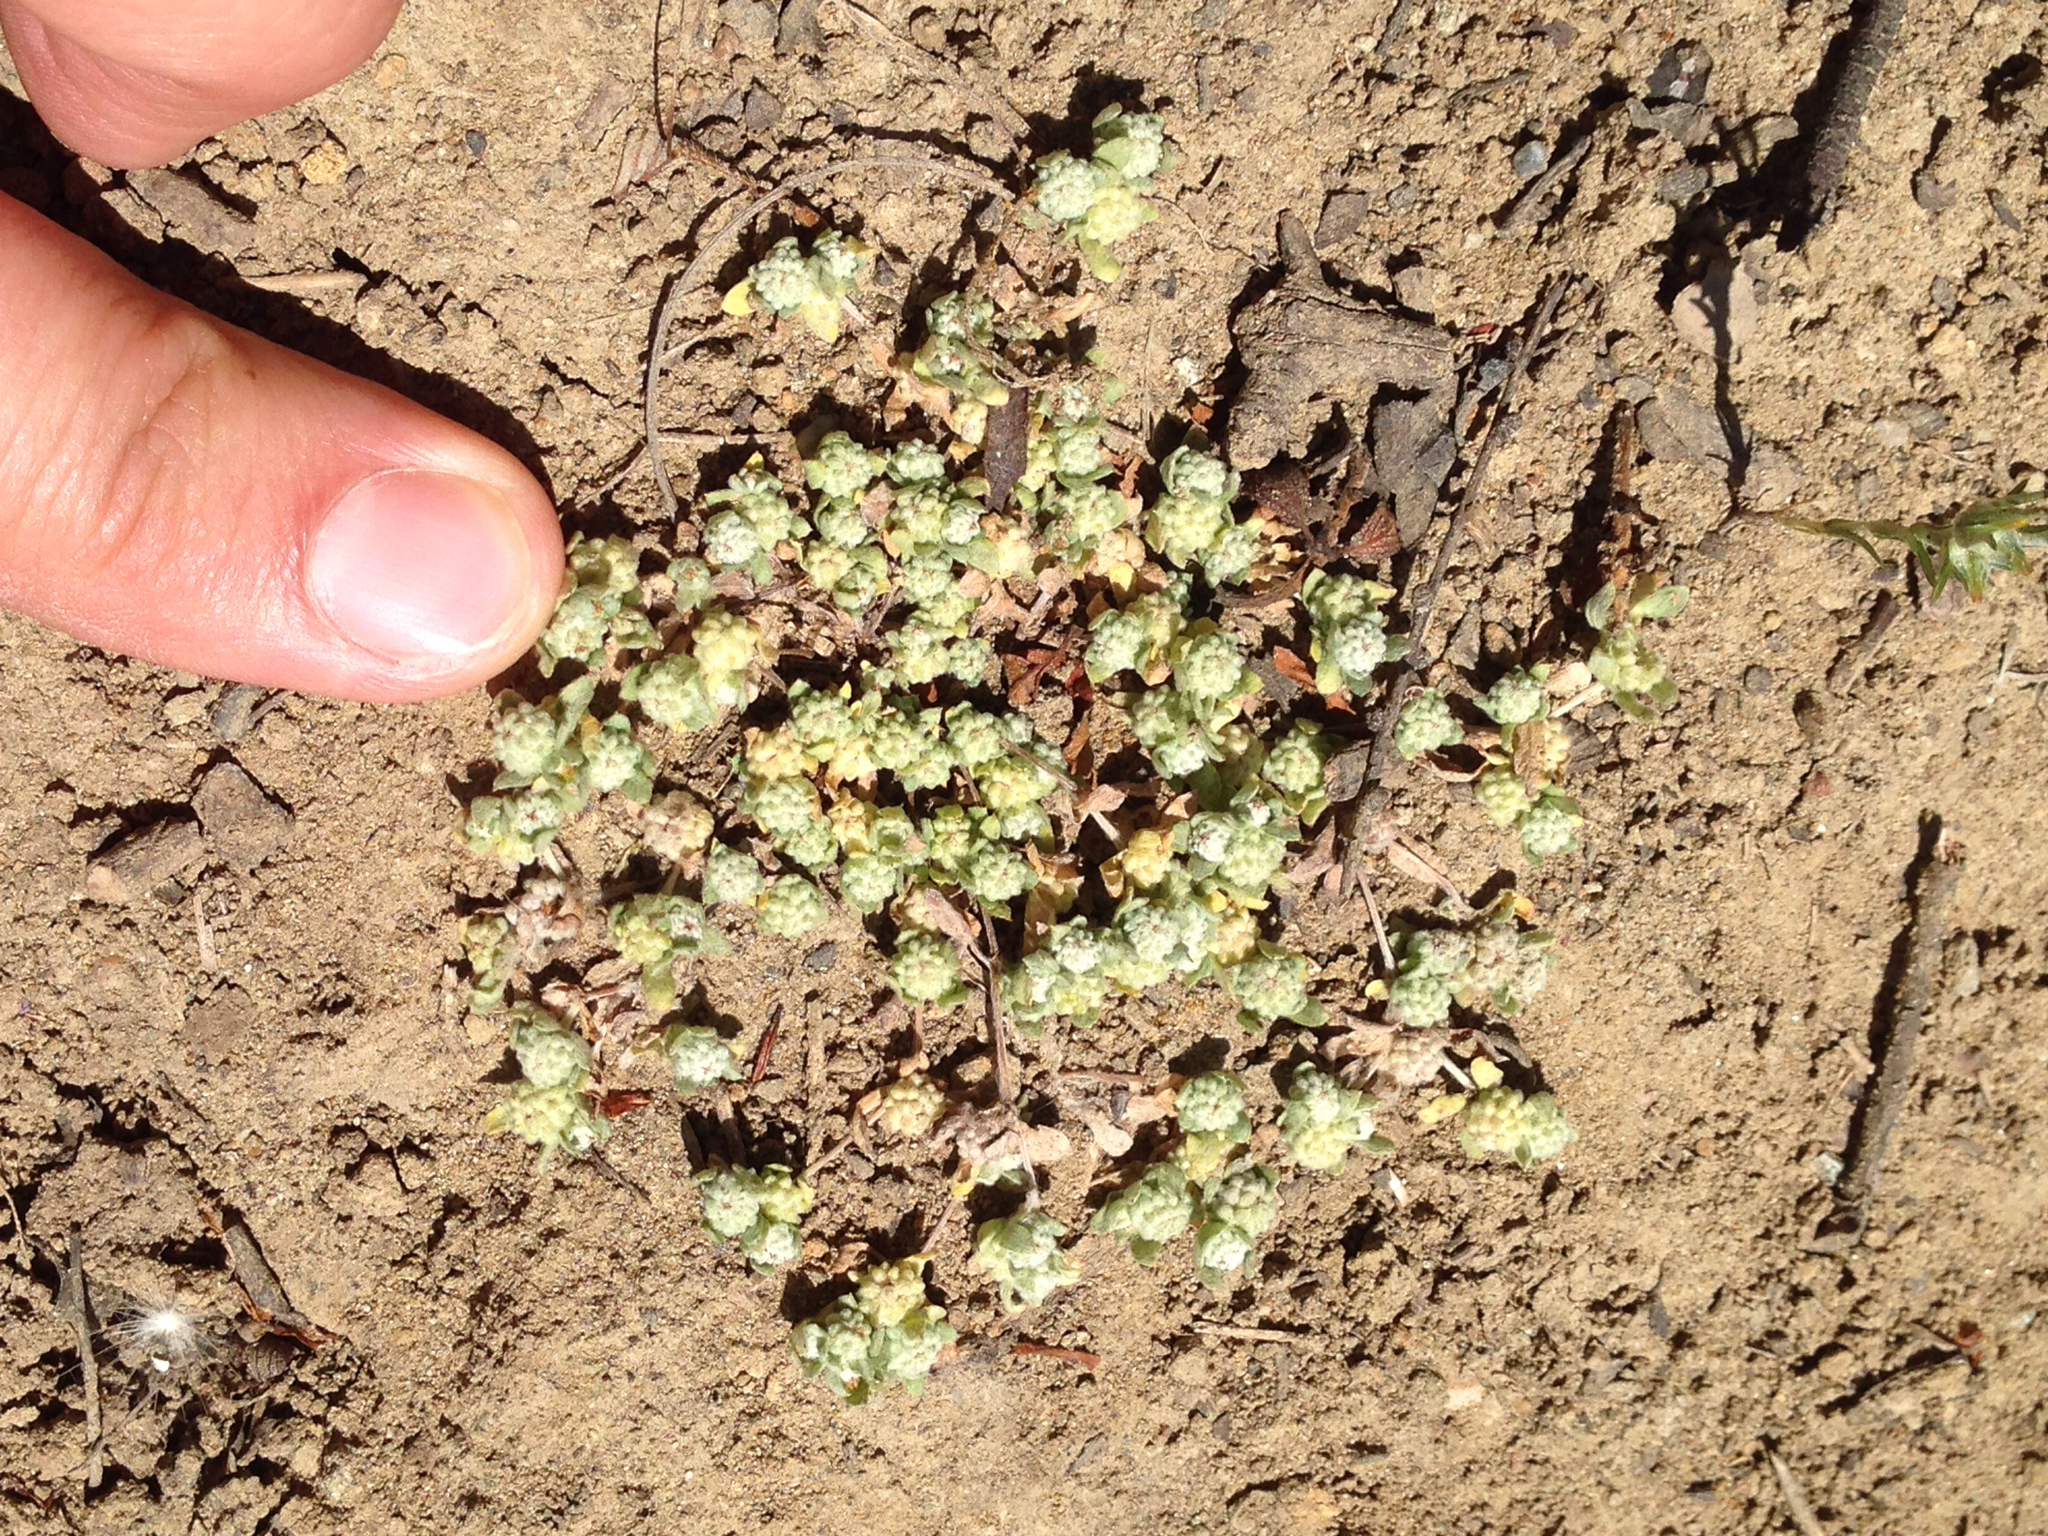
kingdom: Plantae
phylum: Tracheophyta
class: Magnoliopsida
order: Asterales
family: Asteraceae
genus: Psilocarphus
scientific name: Psilocarphus tenellus
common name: Slender woolly-marbles
